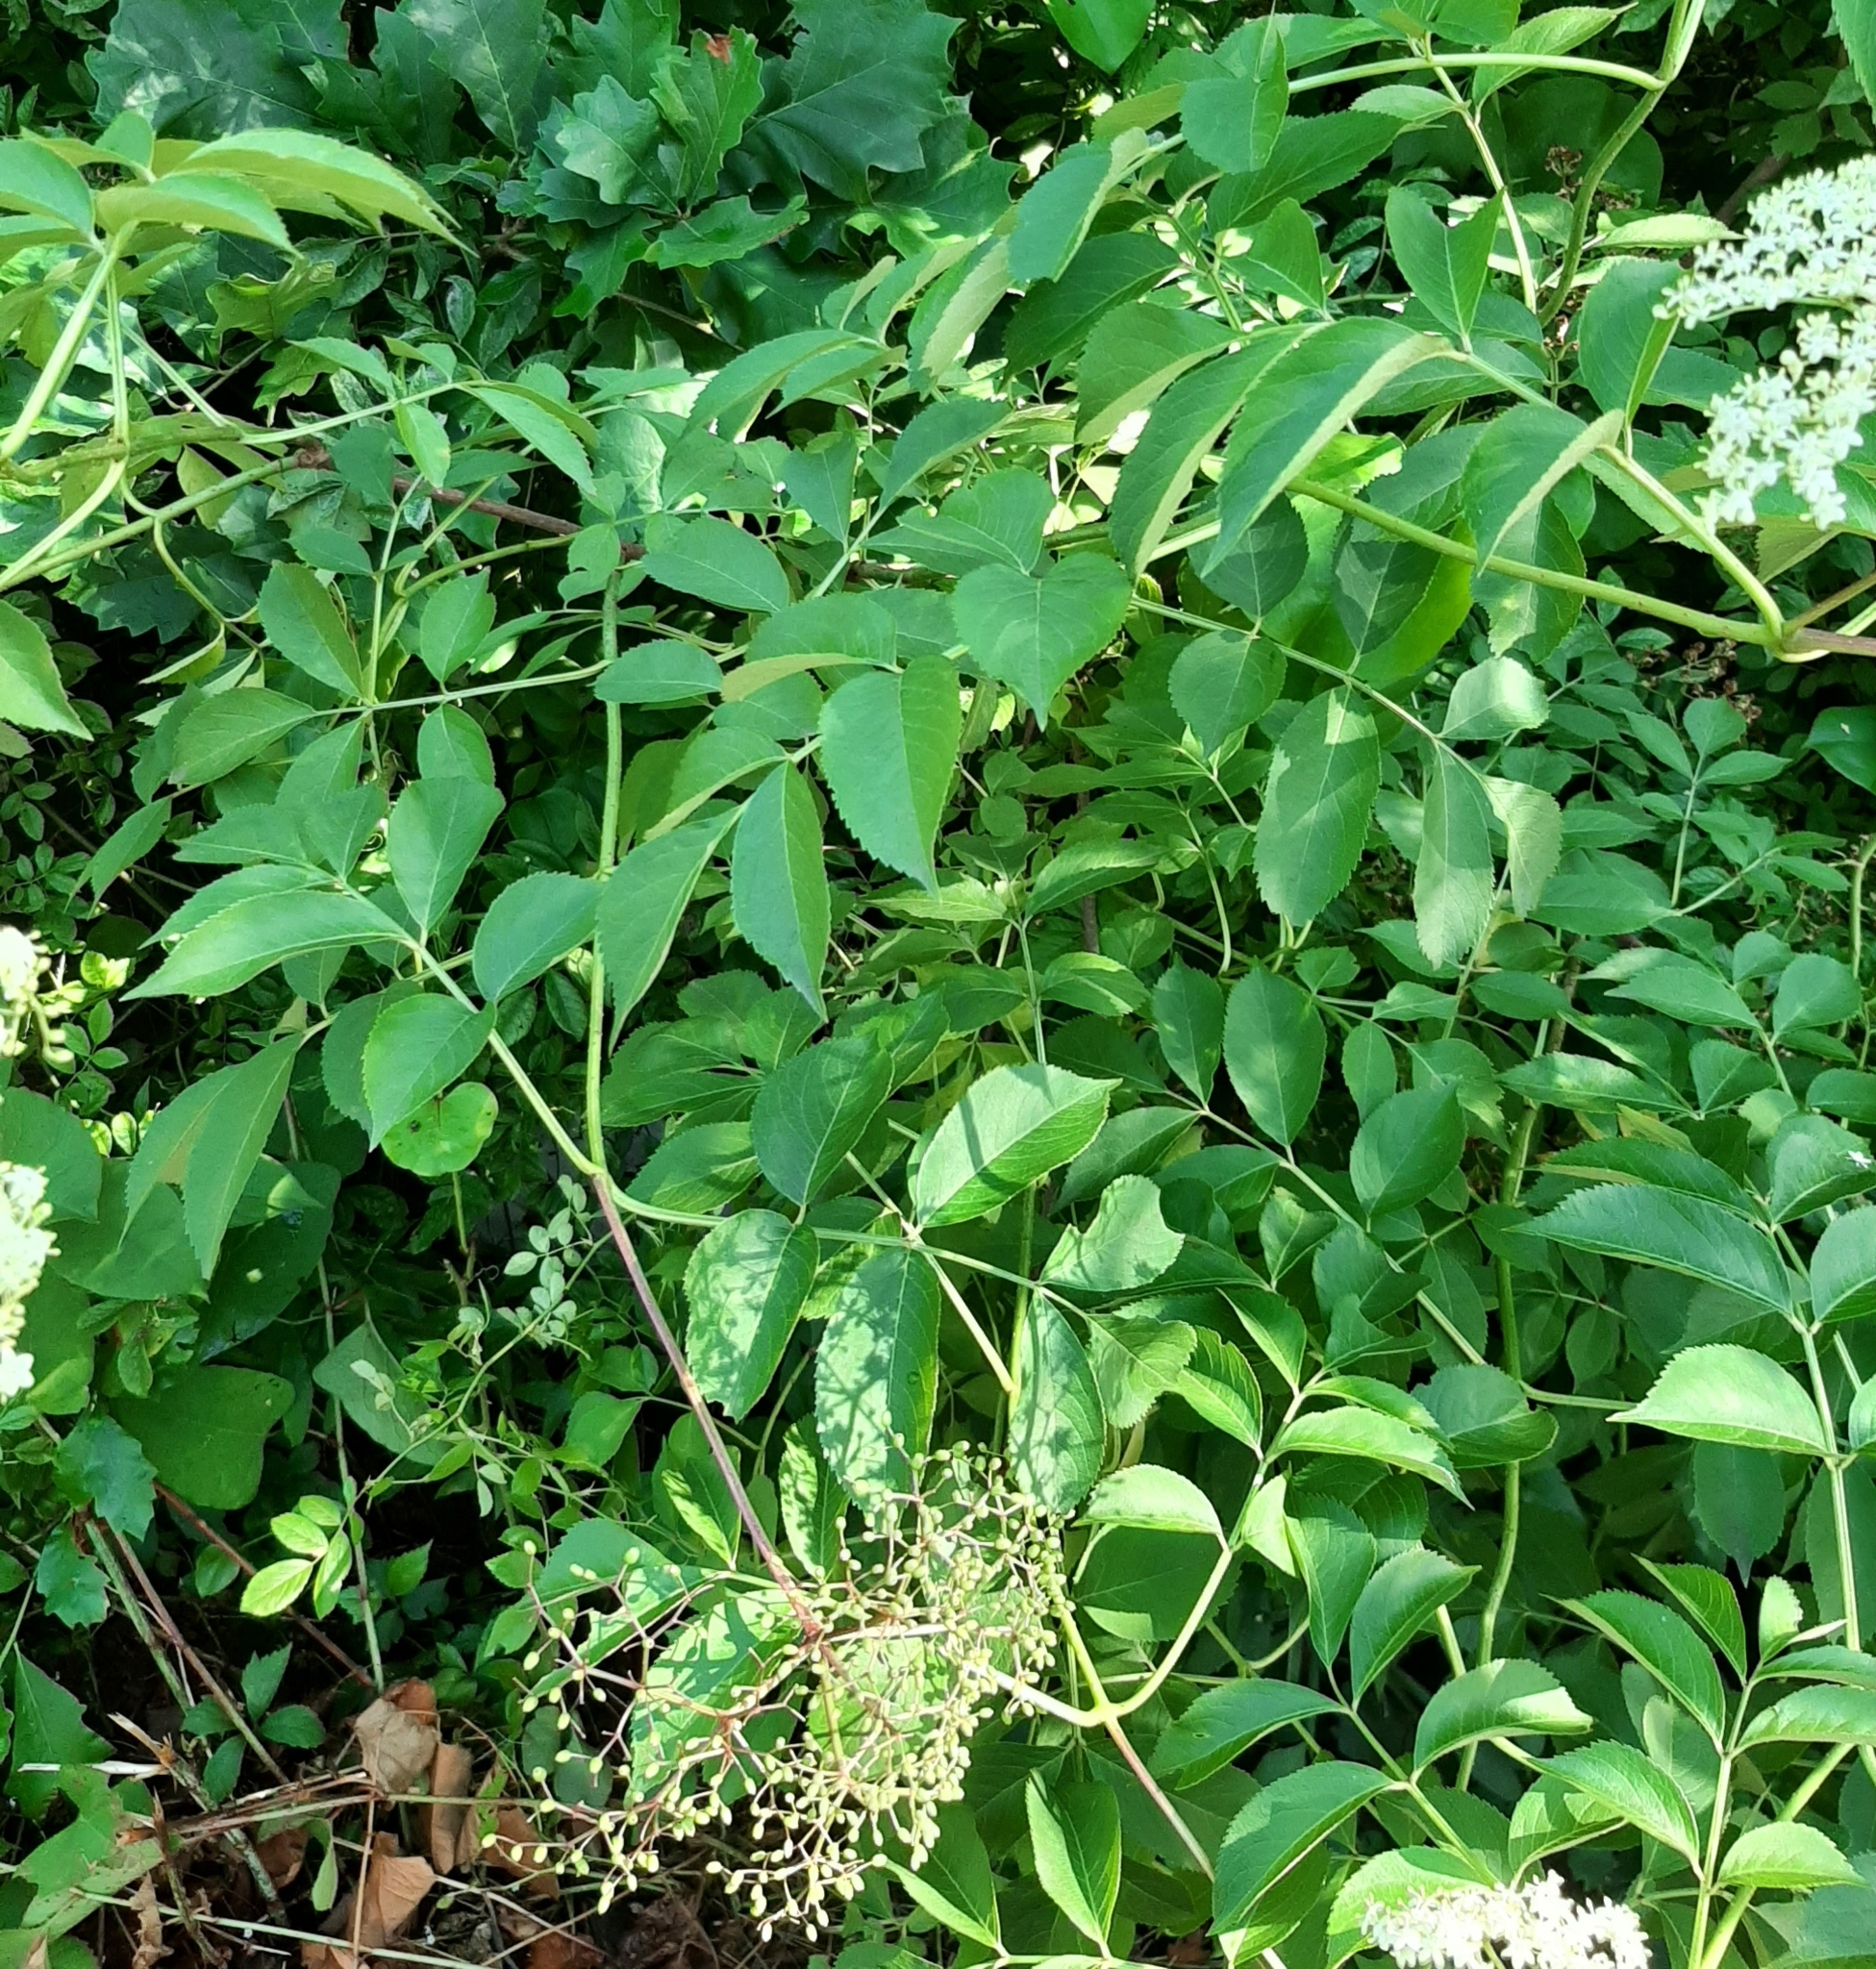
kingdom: Plantae
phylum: Tracheophyta
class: Magnoliopsida
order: Dipsacales
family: Viburnaceae
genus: Sambucus
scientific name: Sambucus canadensis
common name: American elder
